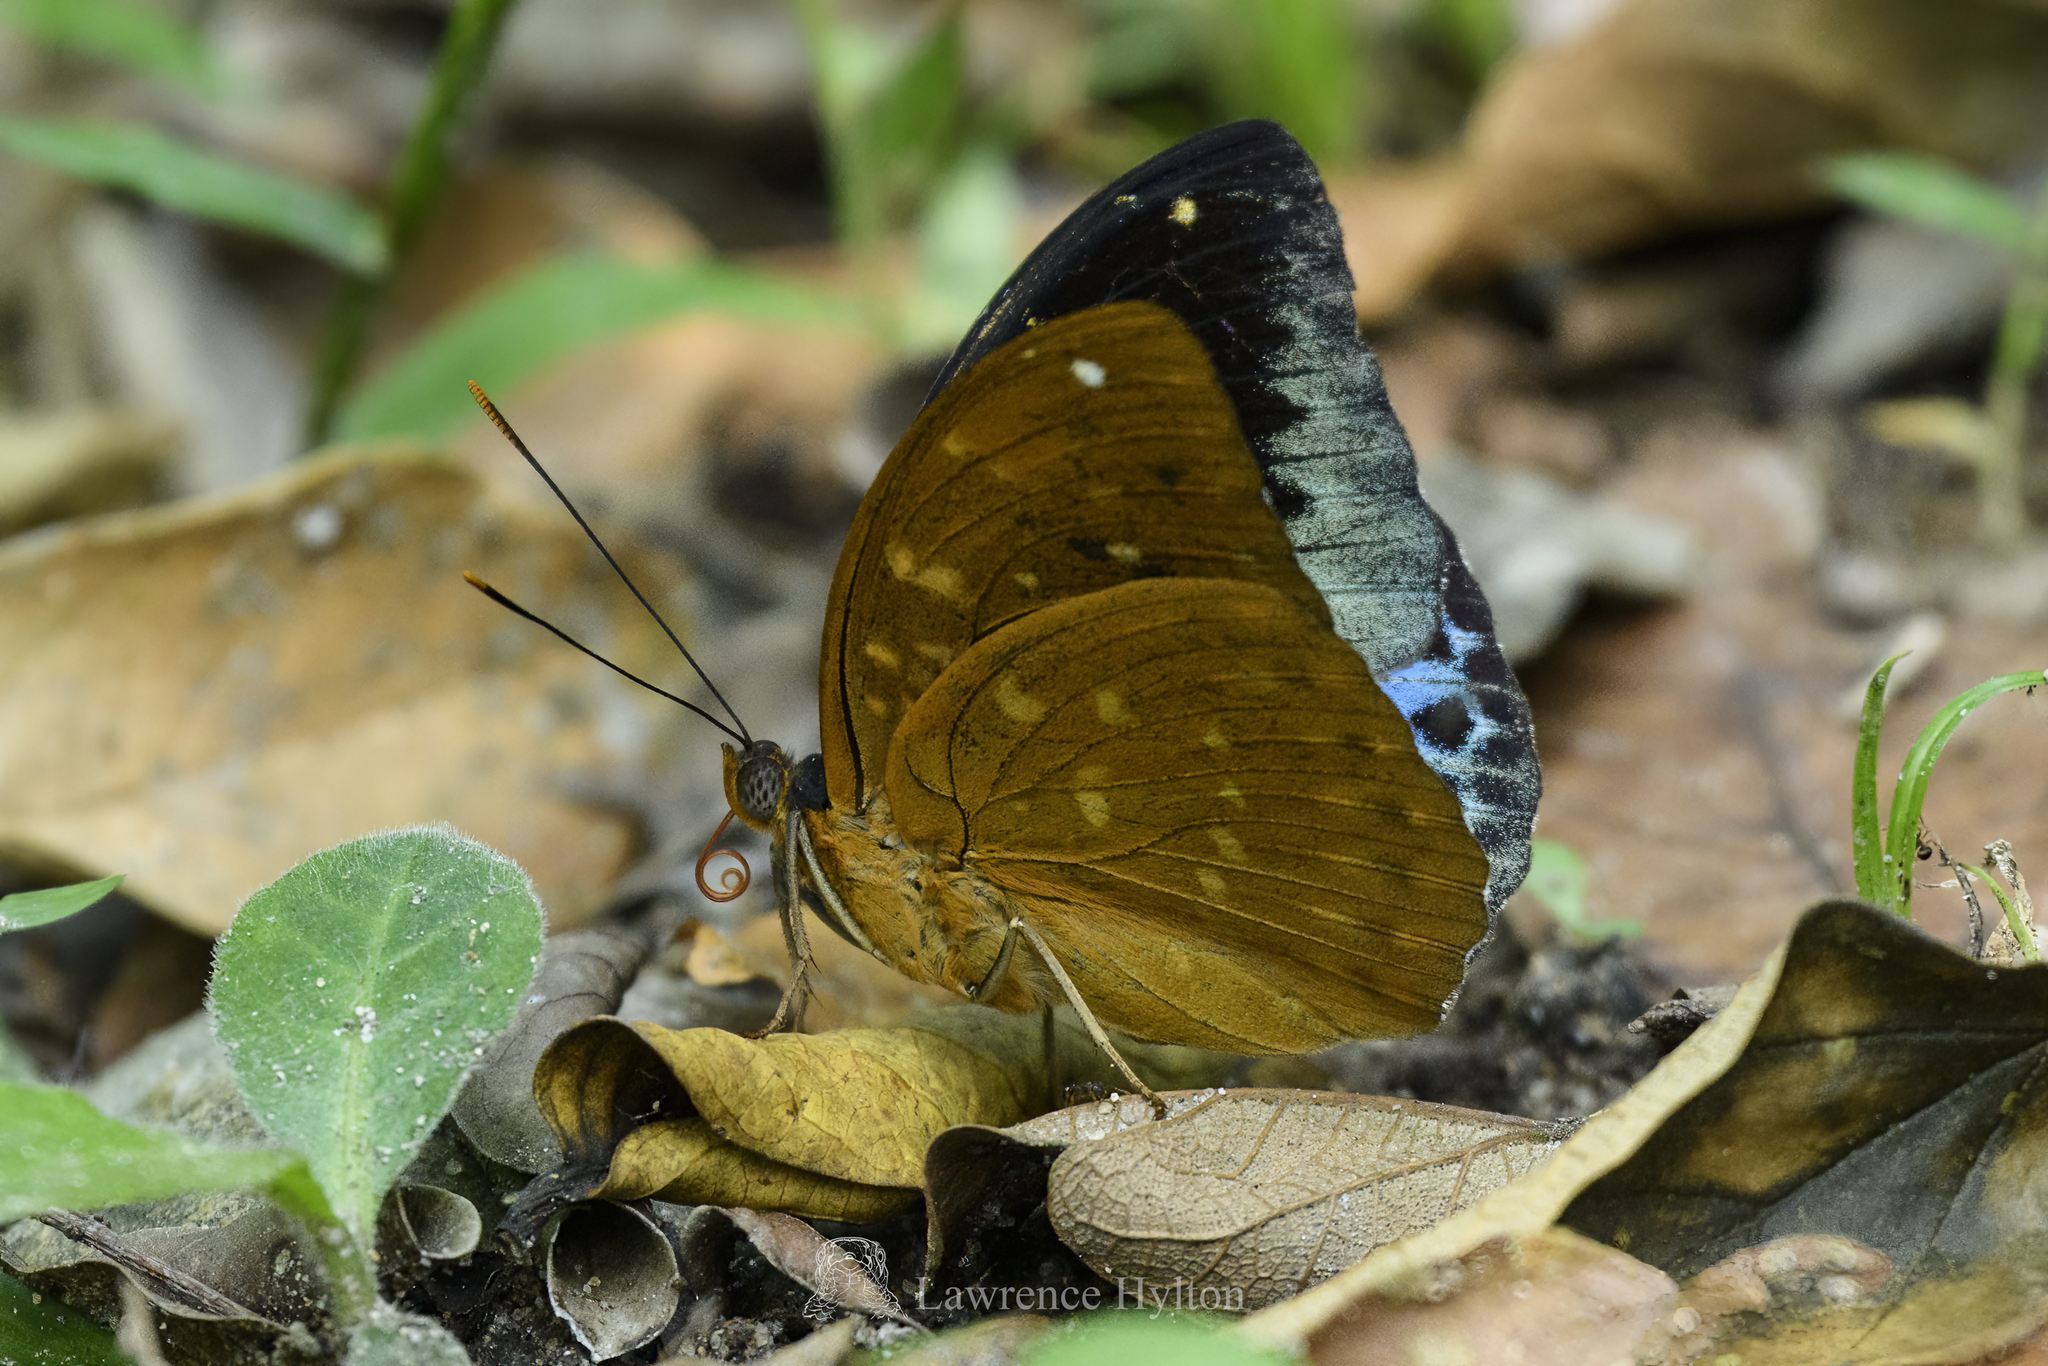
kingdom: Animalia
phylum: Arthropoda
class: Insecta
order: Lepidoptera
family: Nymphalidae
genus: Lexias
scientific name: Lexias pardalis
